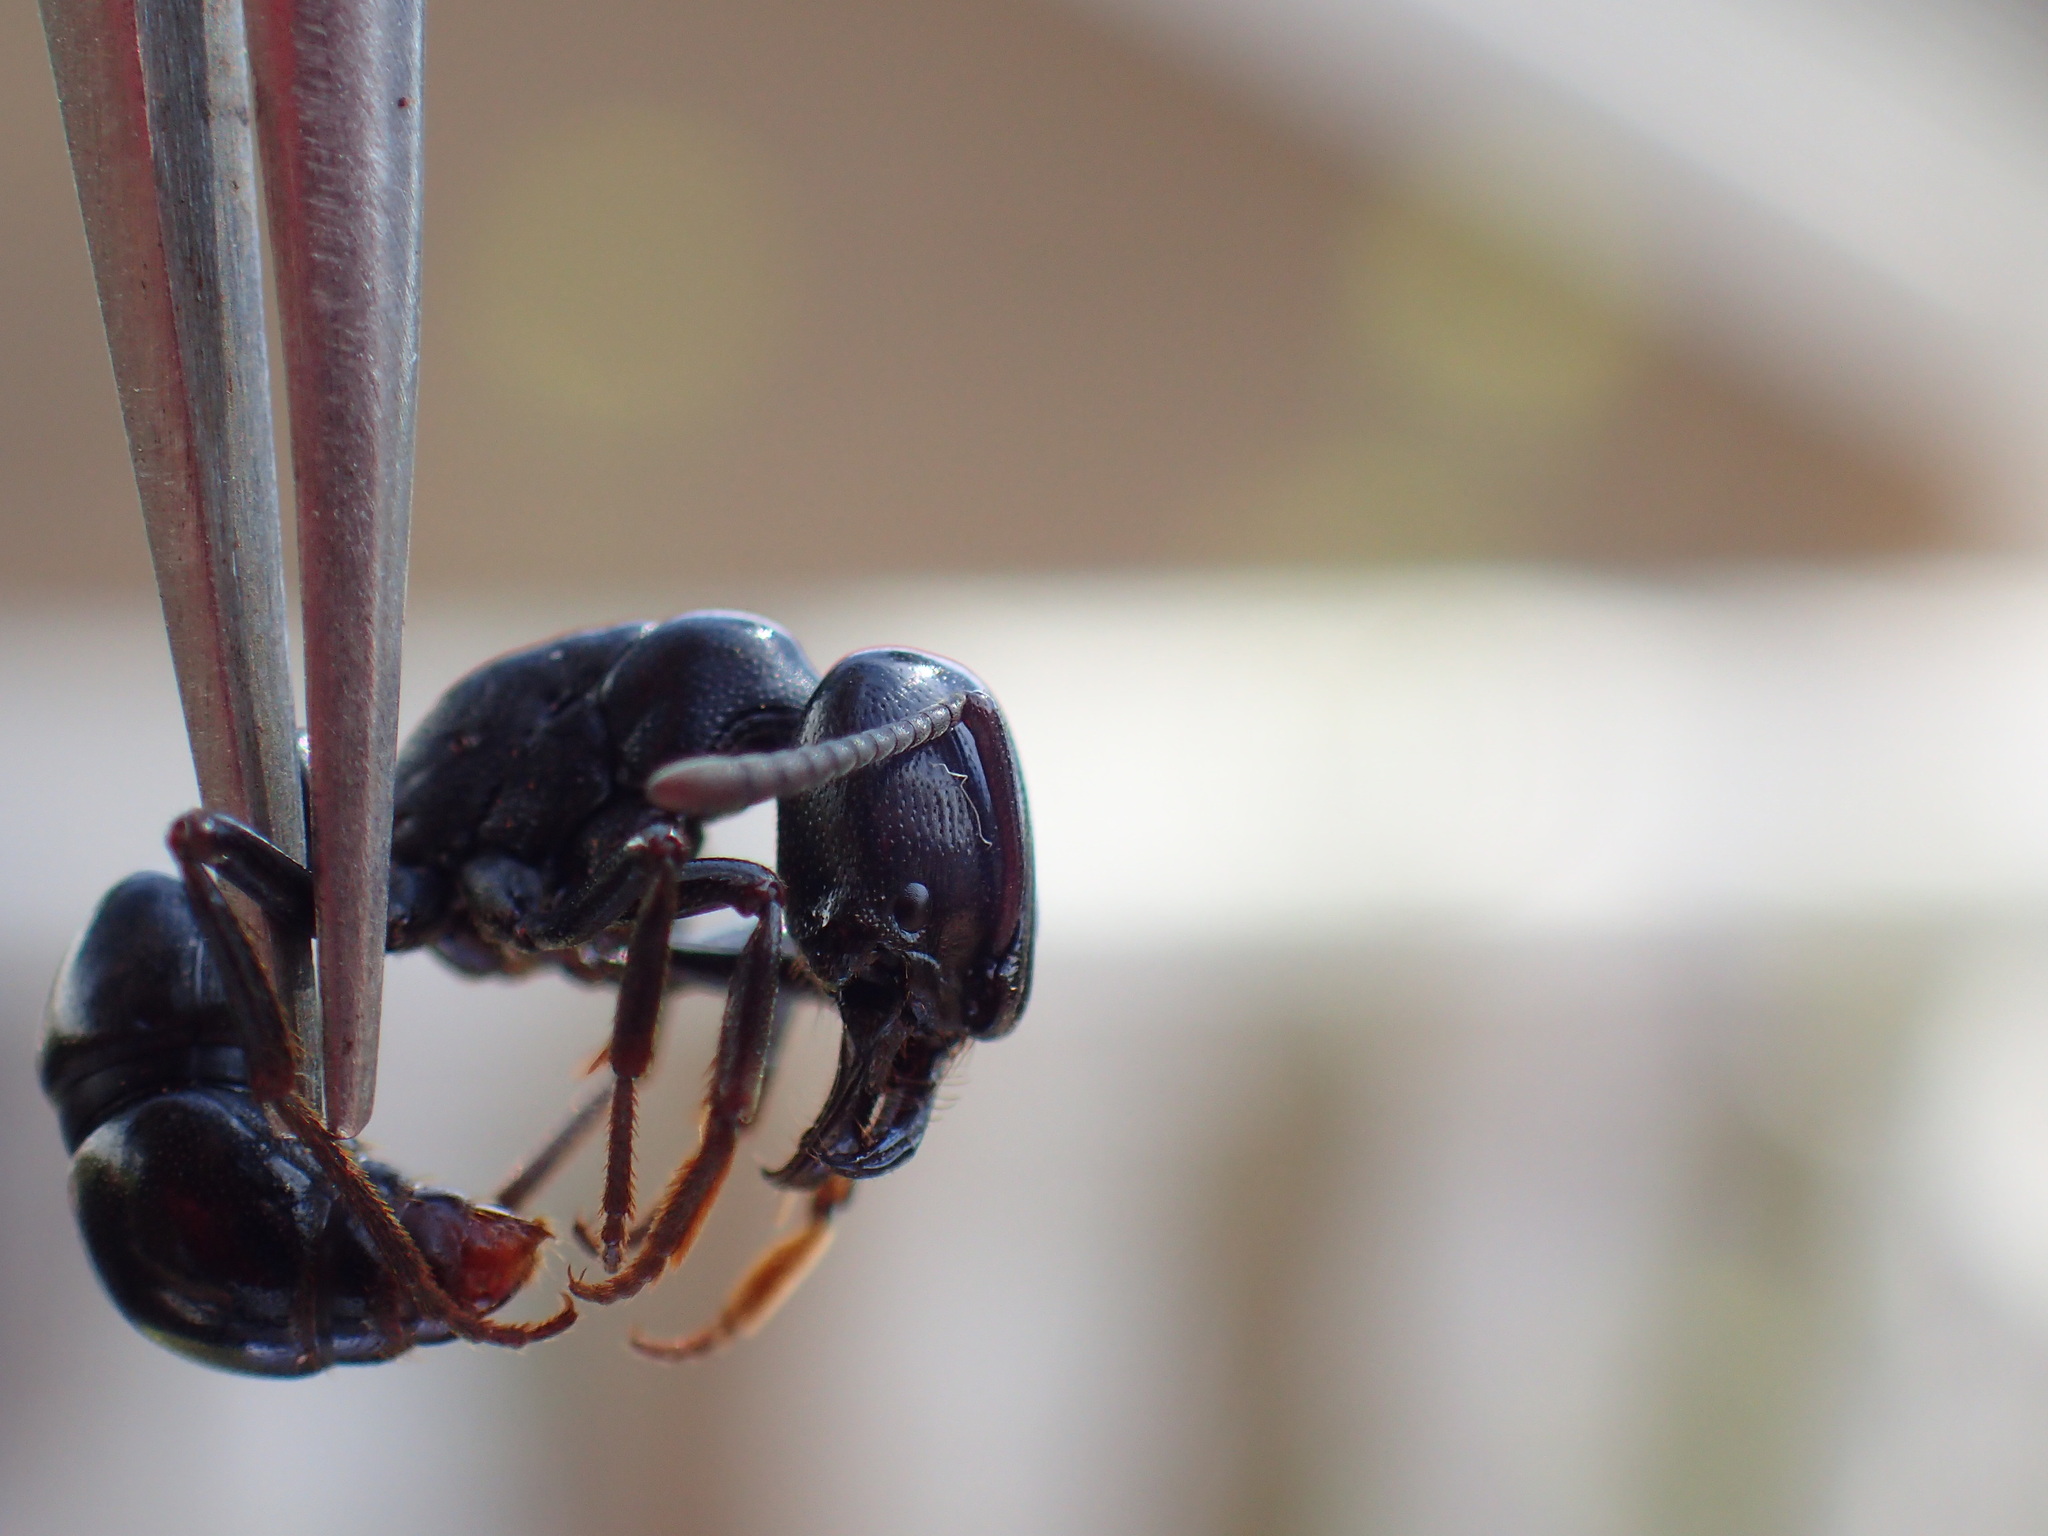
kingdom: Animalia
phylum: Arthropoda
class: Insecta
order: Hymenoptera
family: Formicidae
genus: Plectroctena
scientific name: Plectroctena mandibularis
